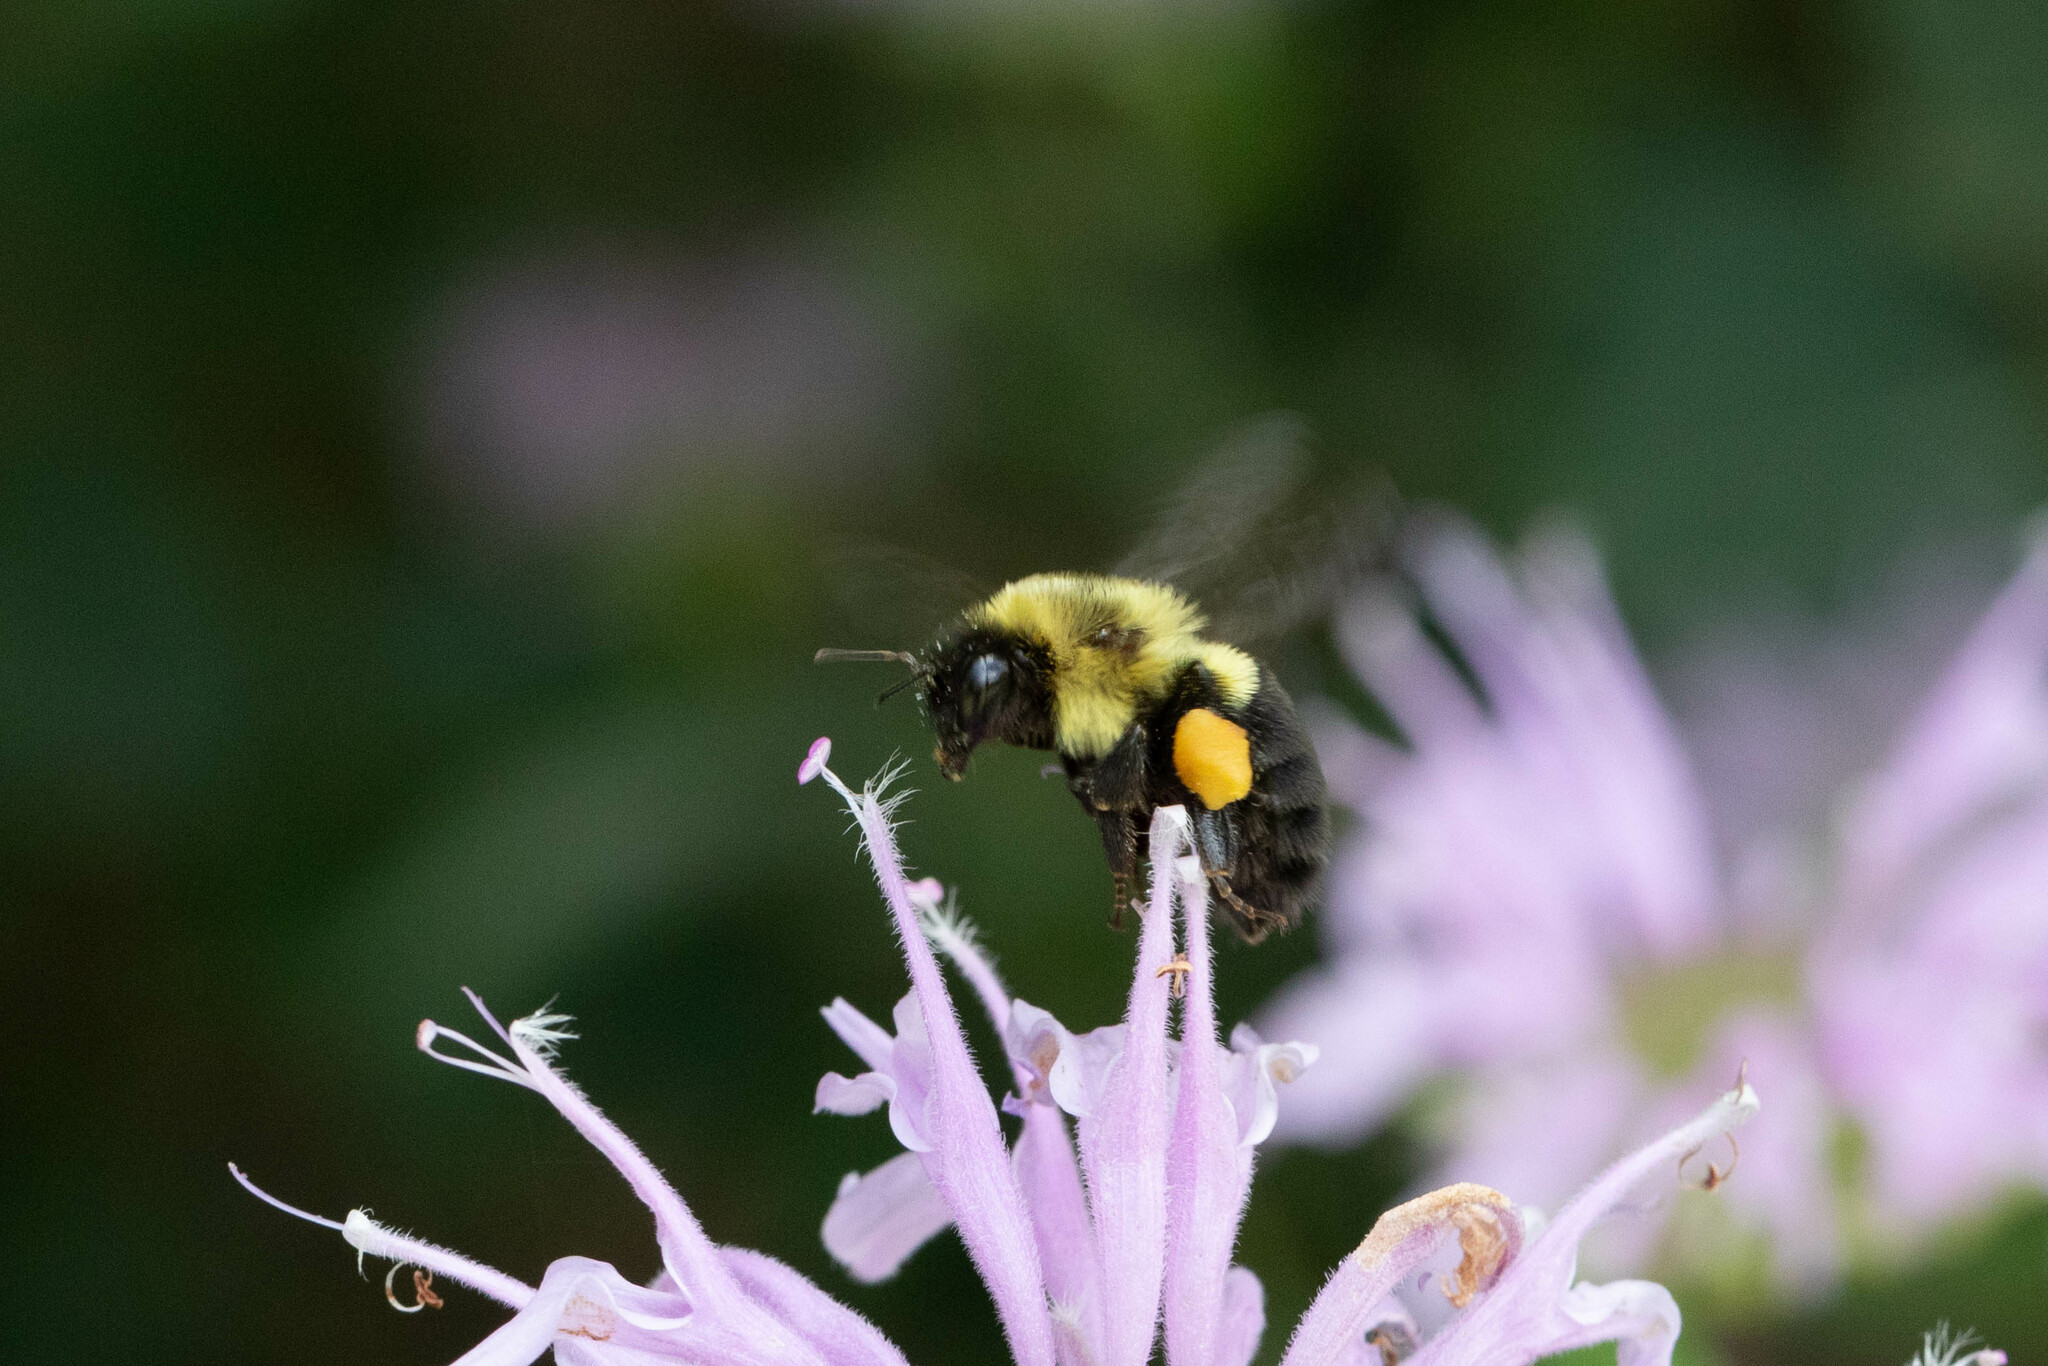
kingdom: Animalia
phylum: Arthropoda
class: Insecta
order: Hymenoptera
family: Apidae
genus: Bombus
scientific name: Bombus impatiens
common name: Common eastern bumble bee
